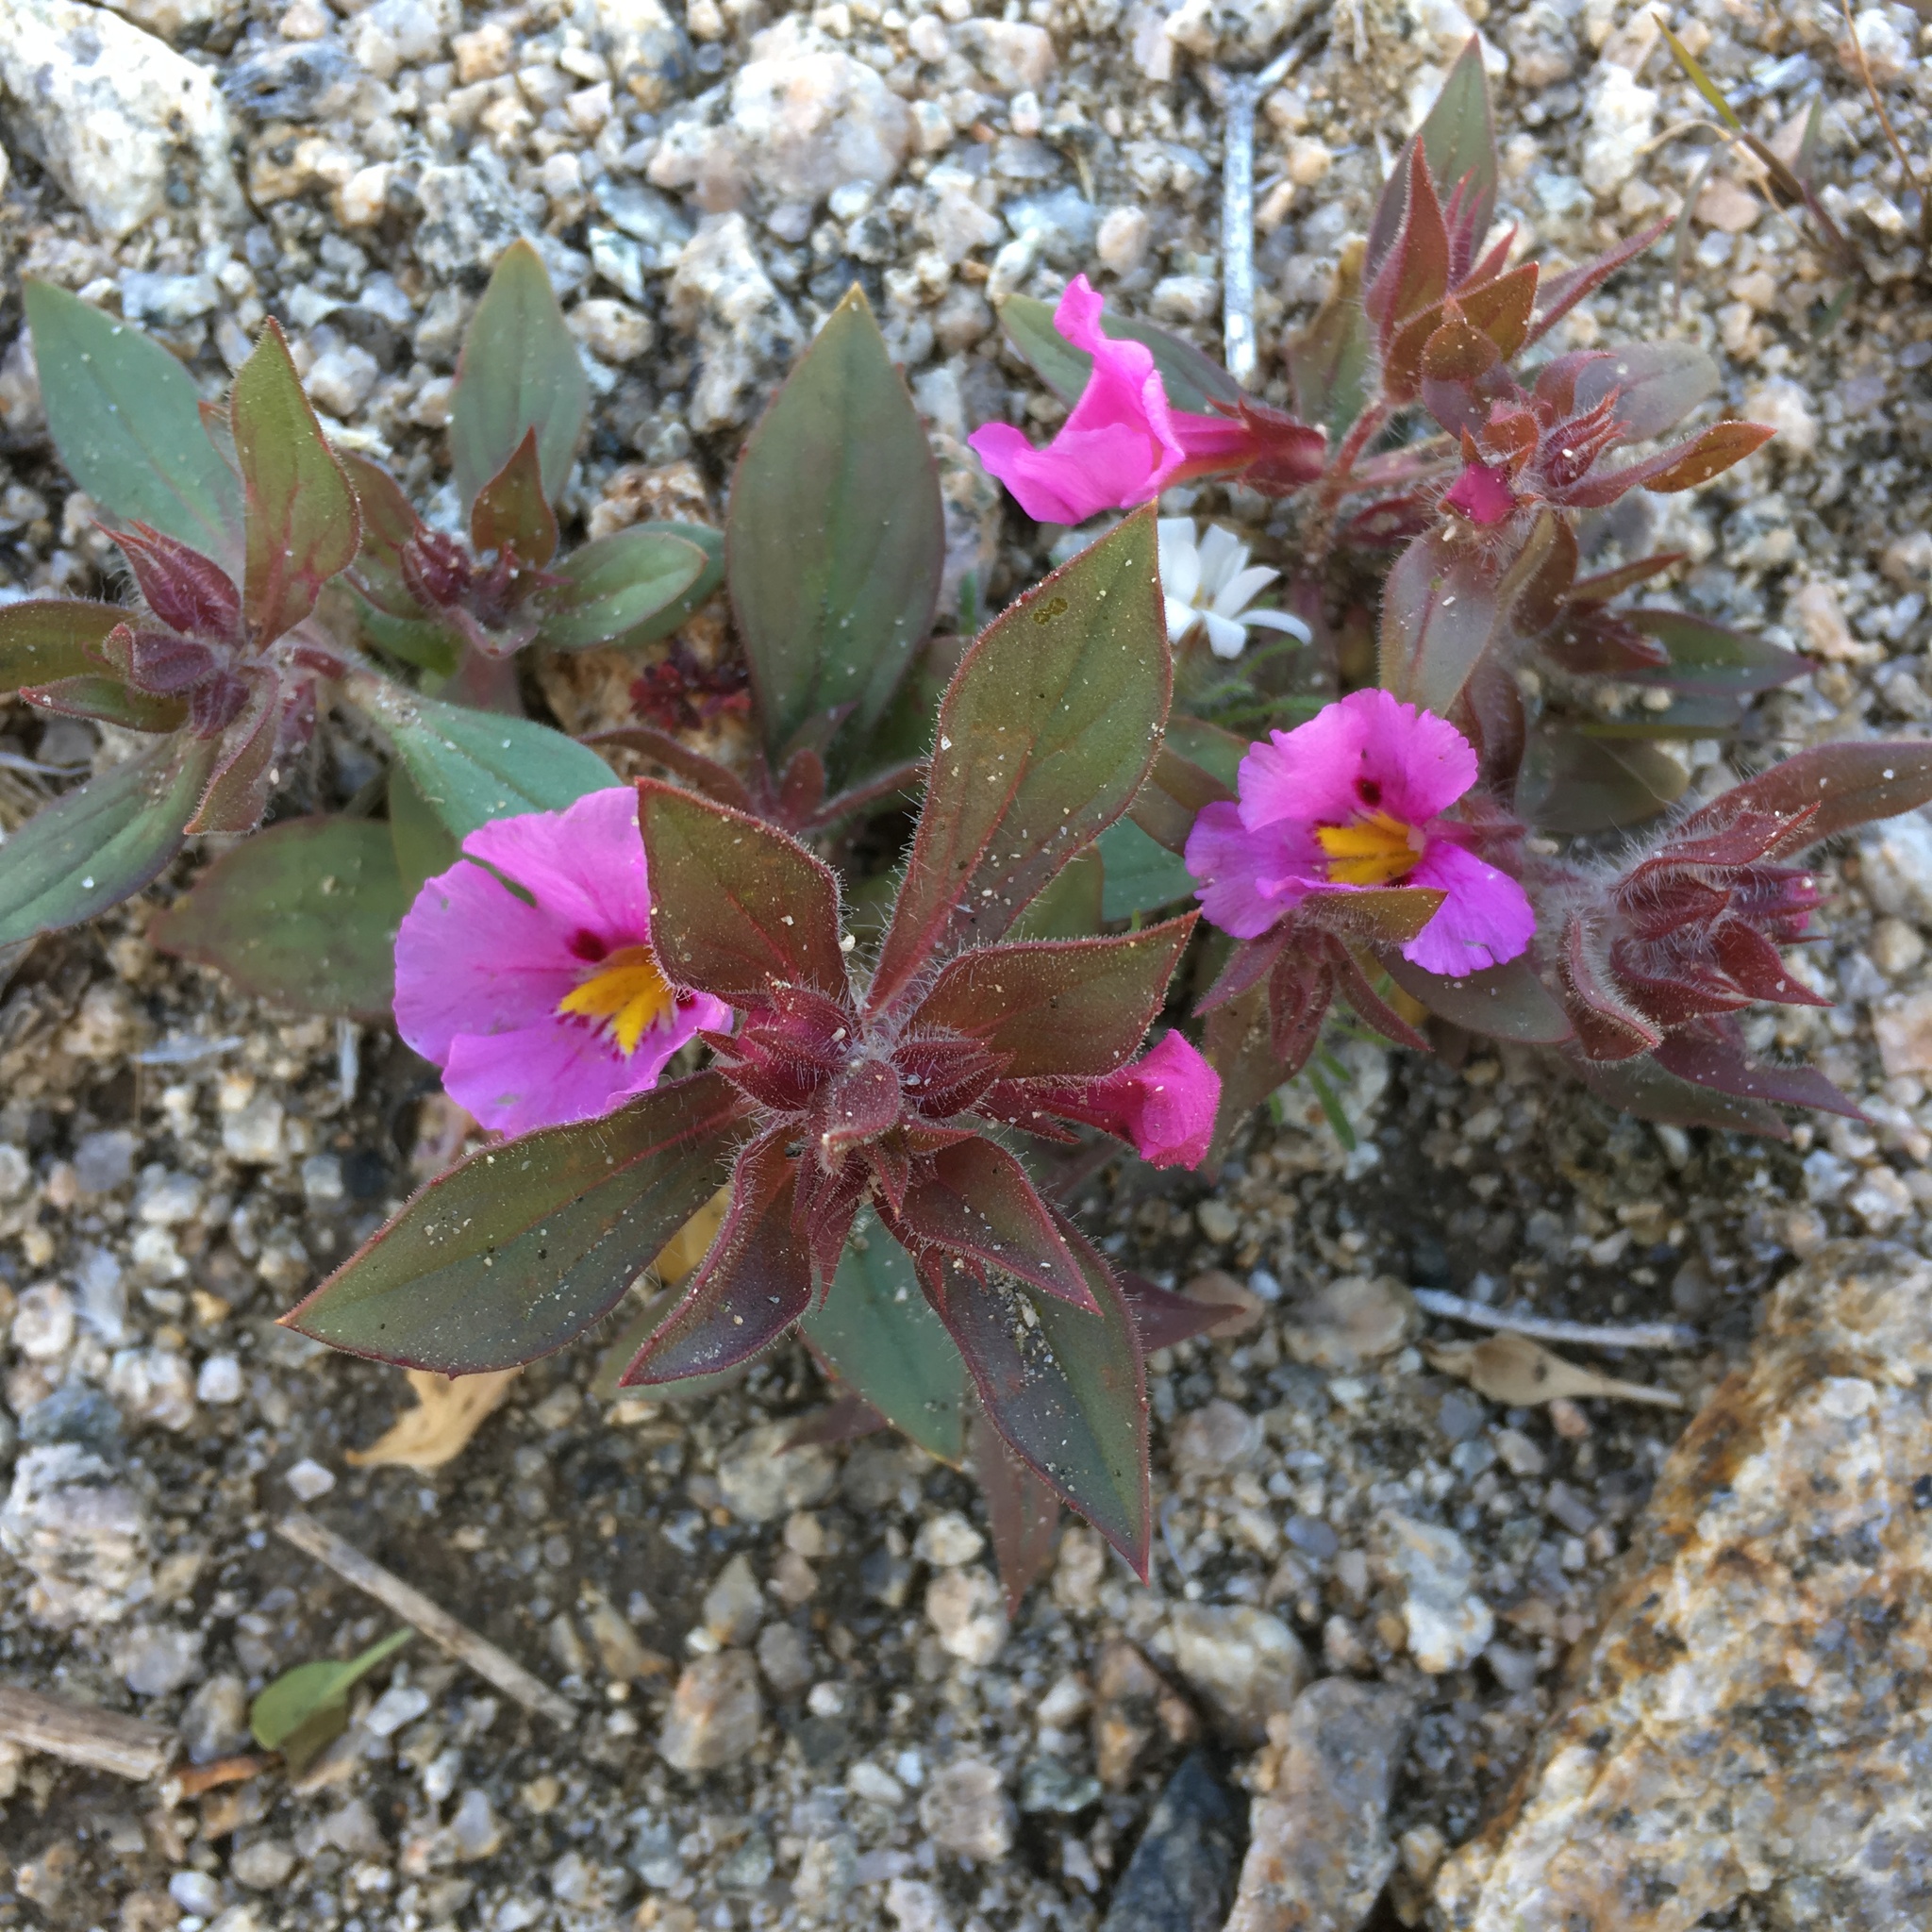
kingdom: Plantae
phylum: Tracheophyta
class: Magnoliopsida
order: Lamiales
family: Phrymaceae
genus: Diplacus
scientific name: Diplacus bigelovii
